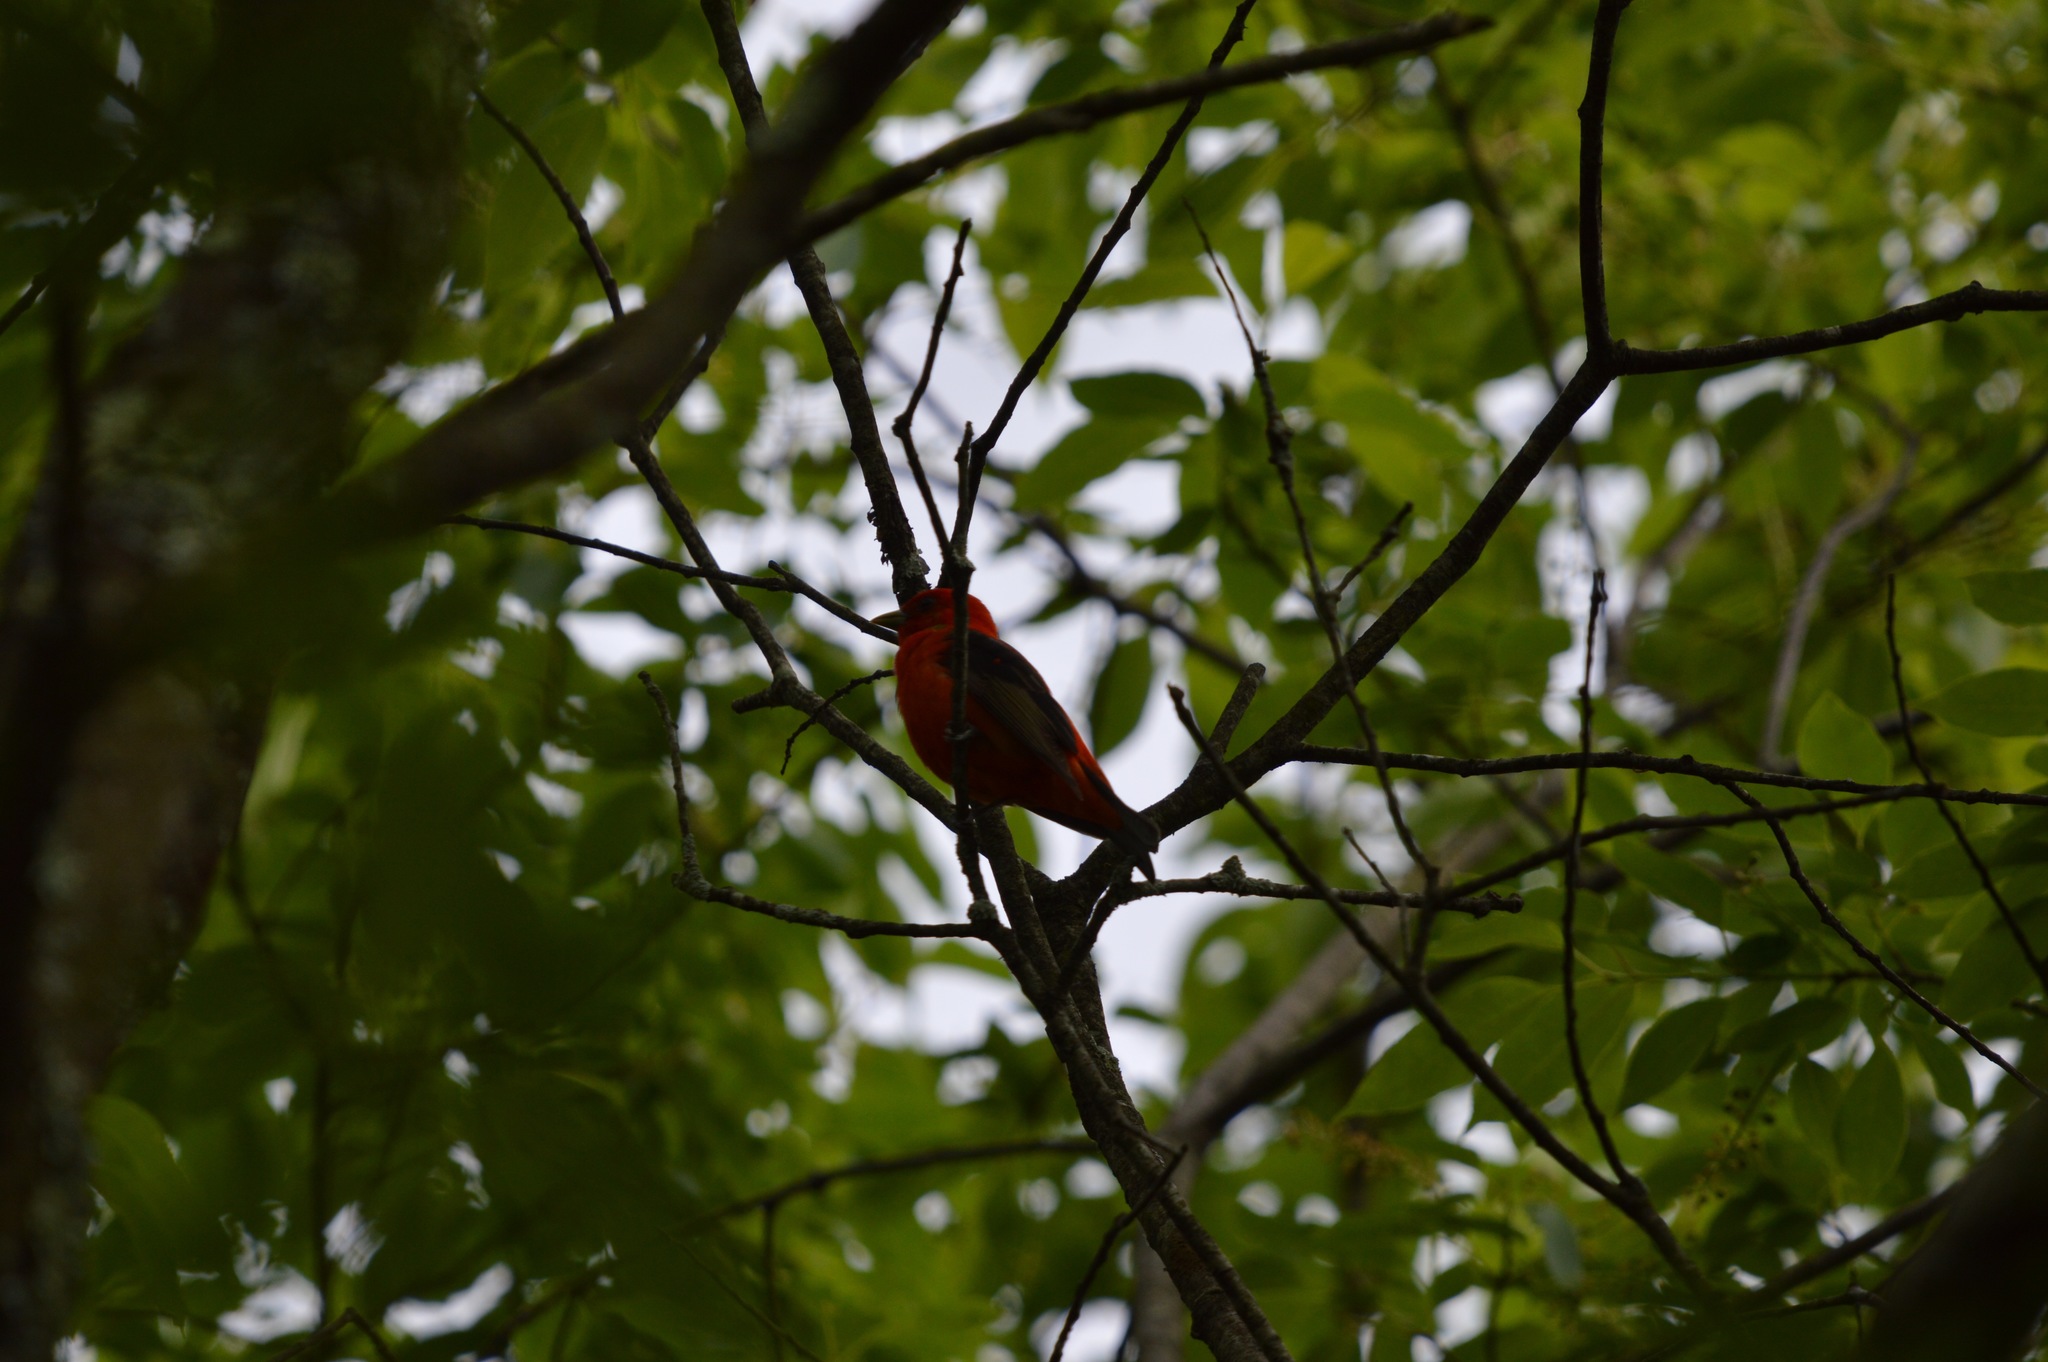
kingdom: Animalia
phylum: Chordata
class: Aves
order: Passeriformes
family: Cardinalidae
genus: Piranga
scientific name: Piranga olivacea
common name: Scarlet tanager
